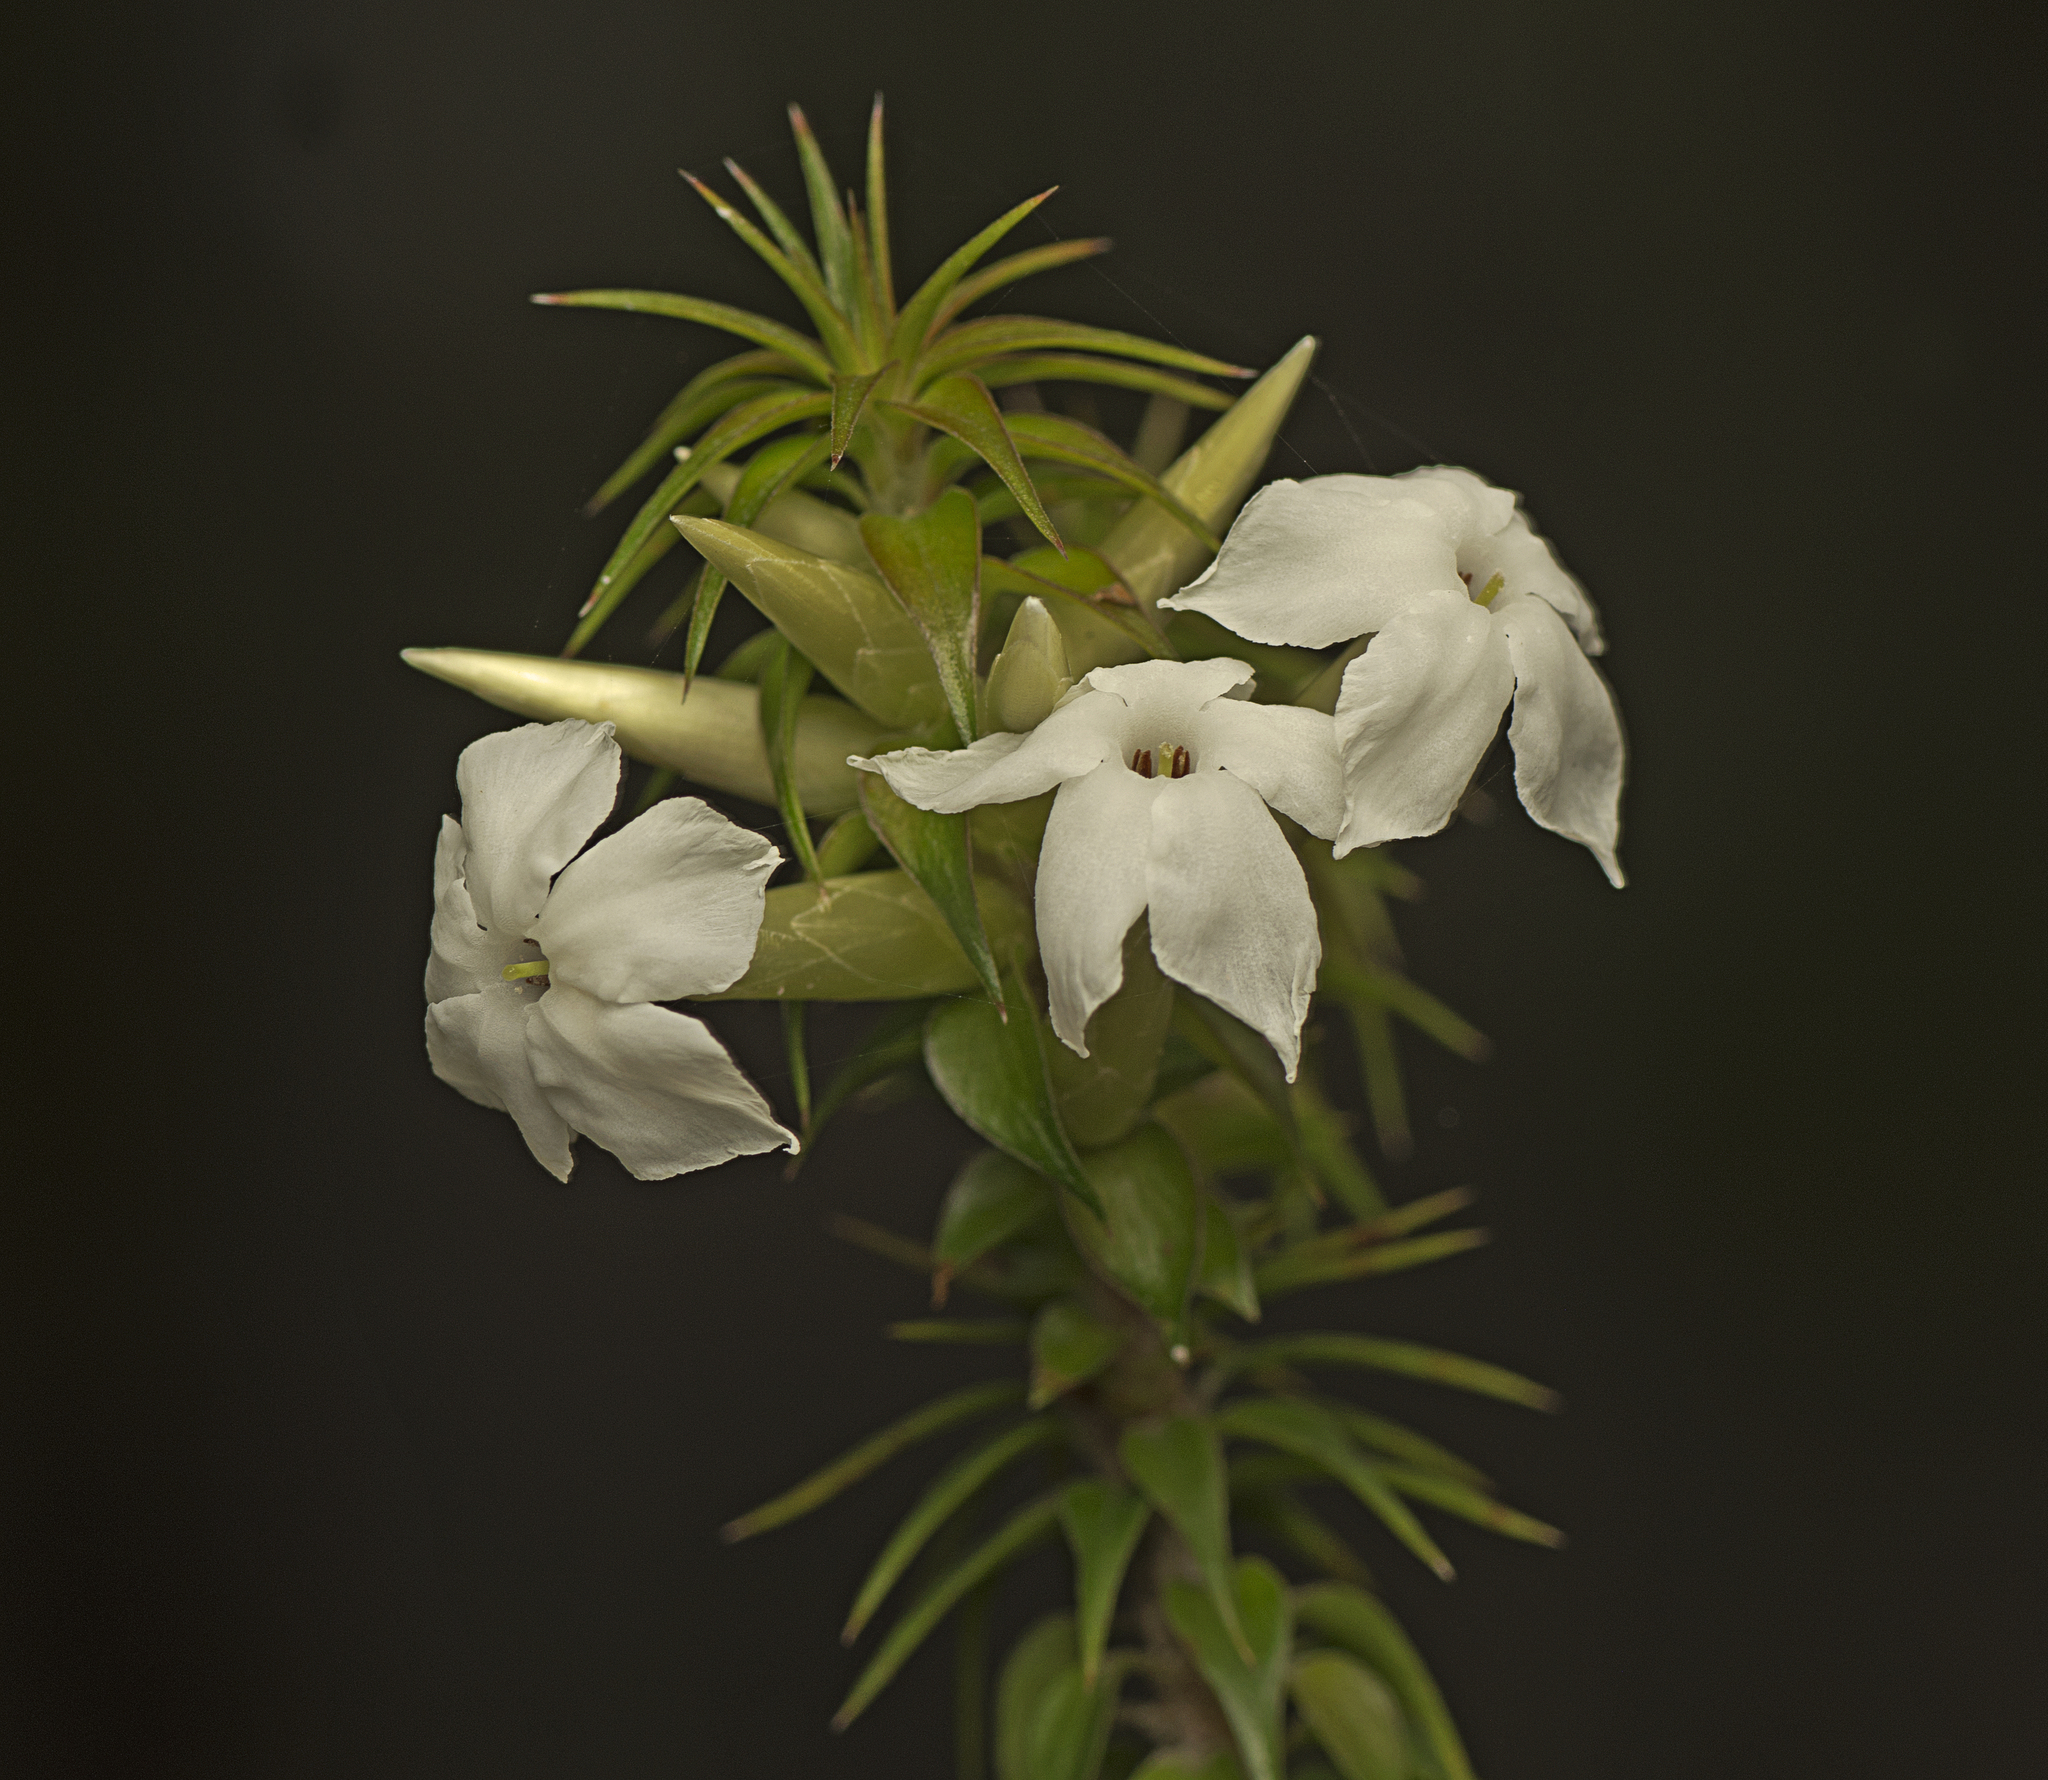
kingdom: Plantae
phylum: Tracheophyta
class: Magnoliopsida
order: Ericales
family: Ericaceae
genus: Woollsia
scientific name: Woollsia pungens
